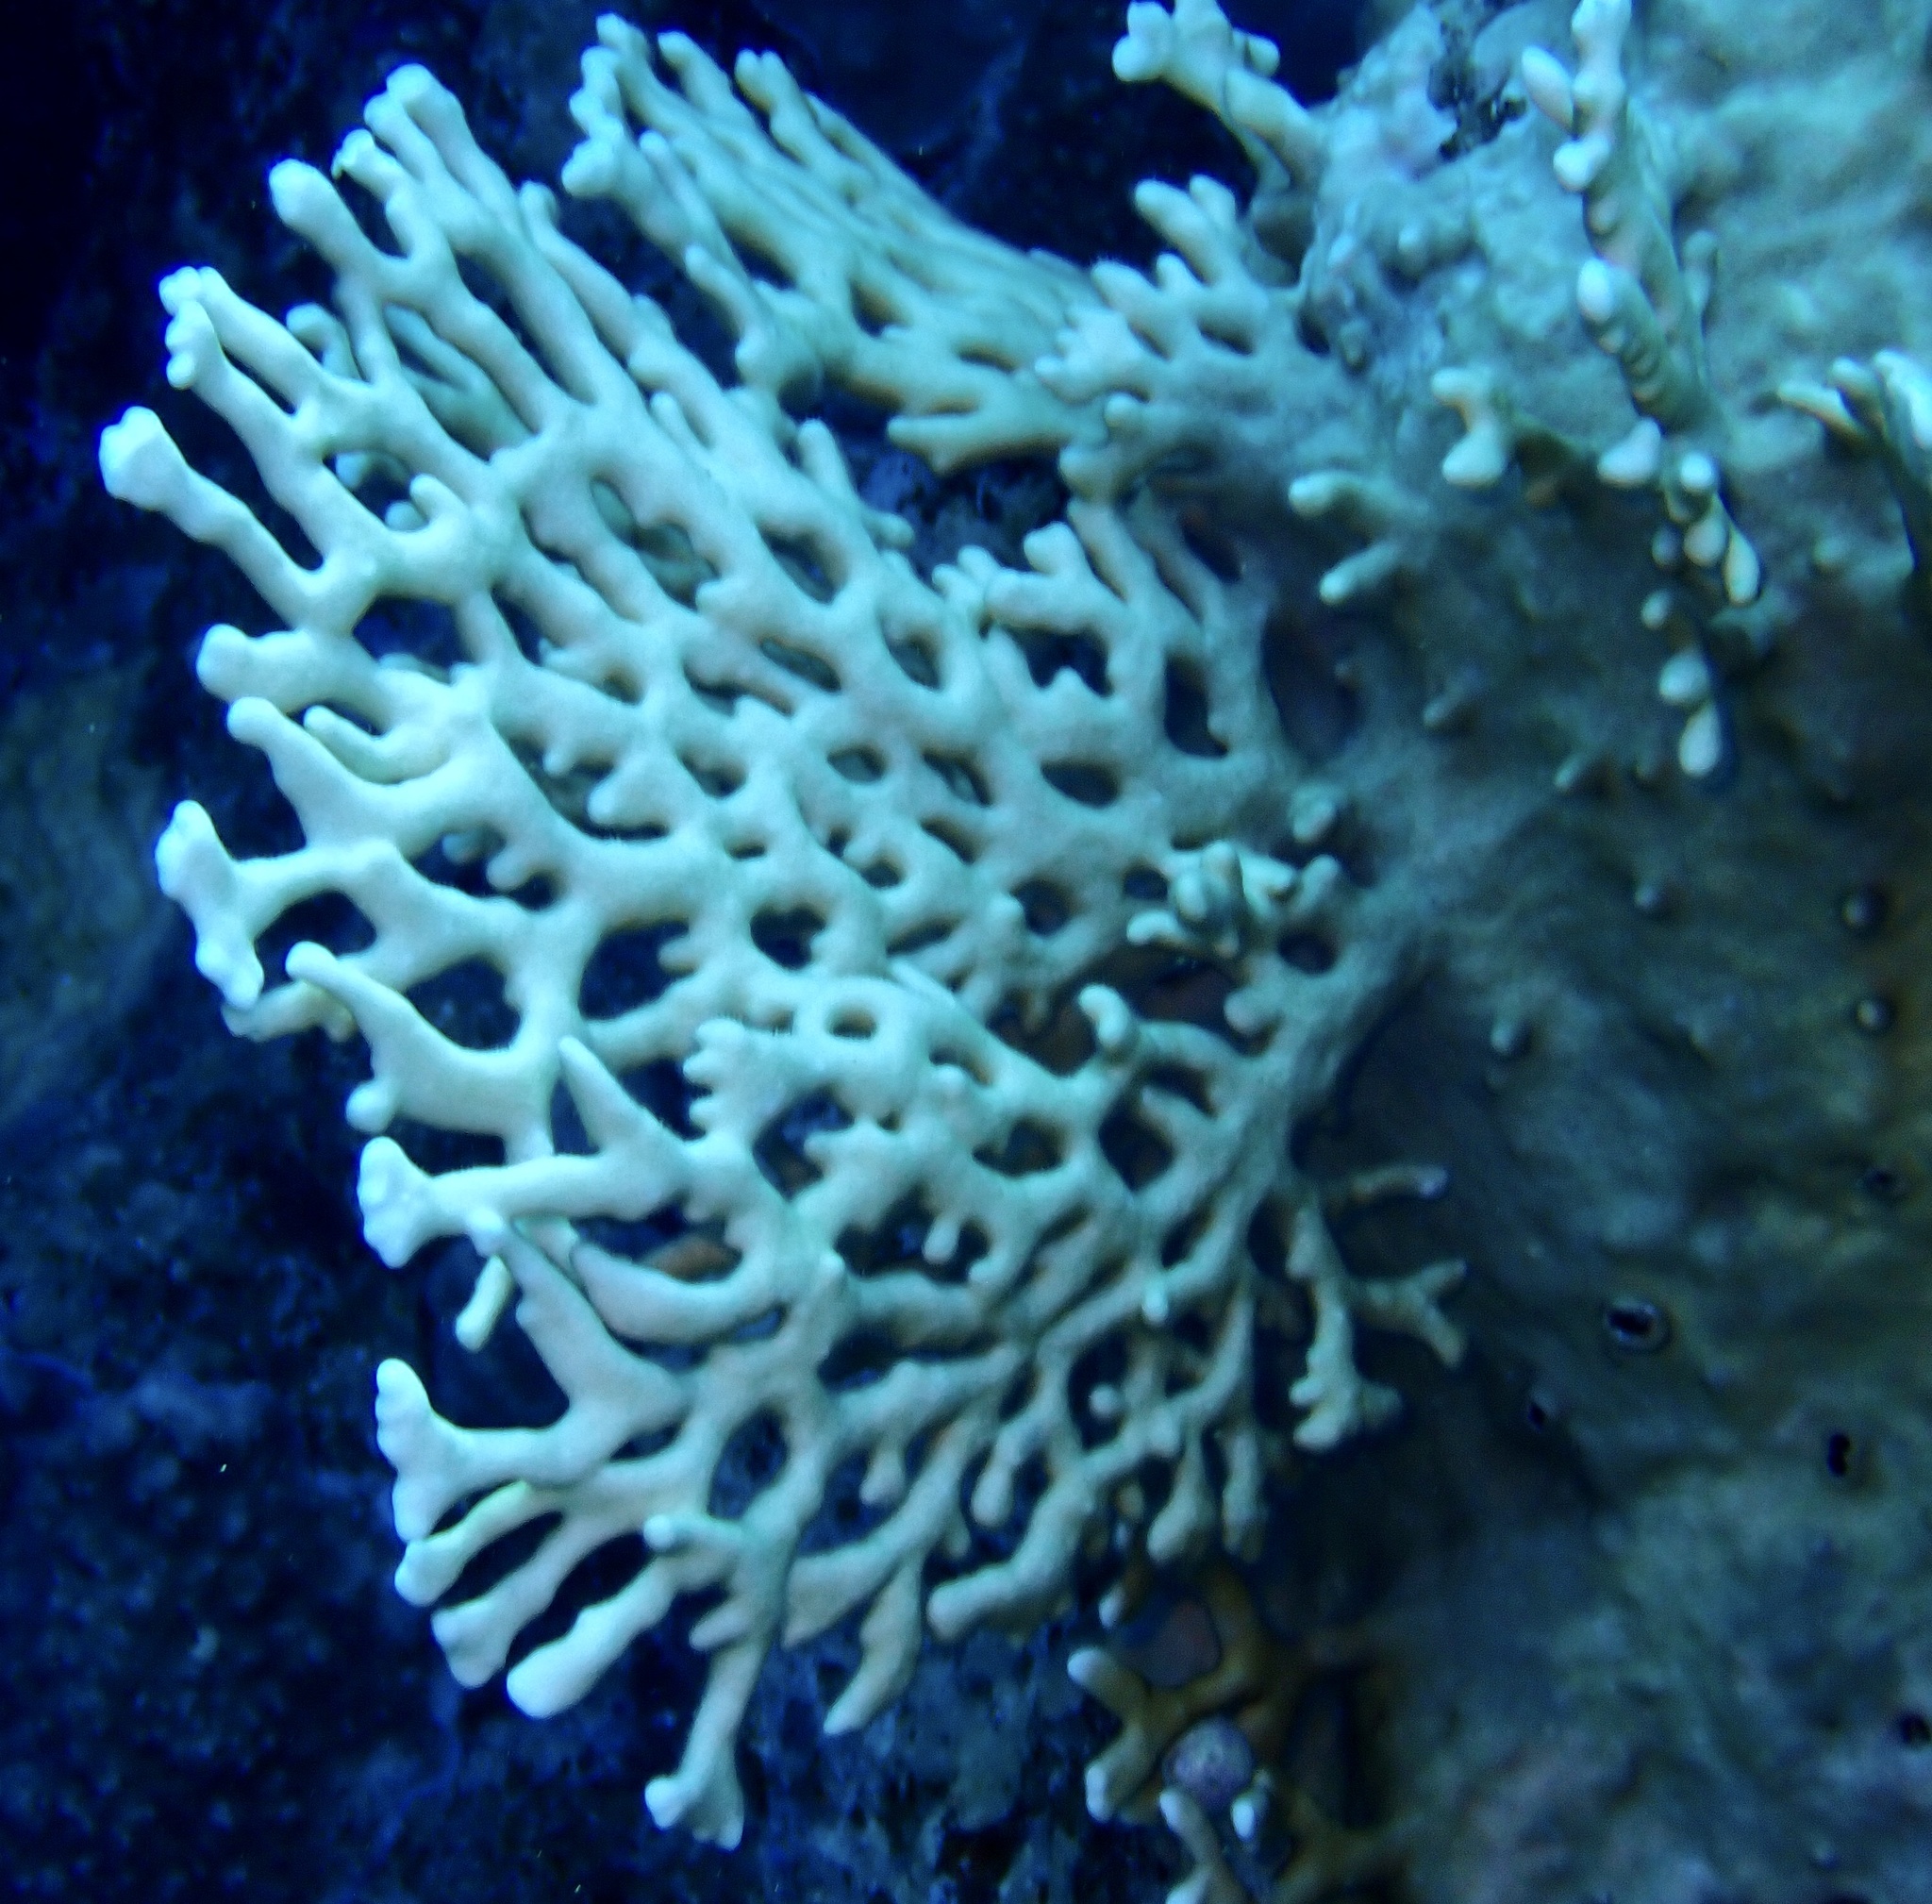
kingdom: Animalia
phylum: Cnidaria
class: Hydrozoa
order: Anthoathecata
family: Milleporidae
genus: Millepora
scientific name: Millepora dichotoma
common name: Ramified fire coral
